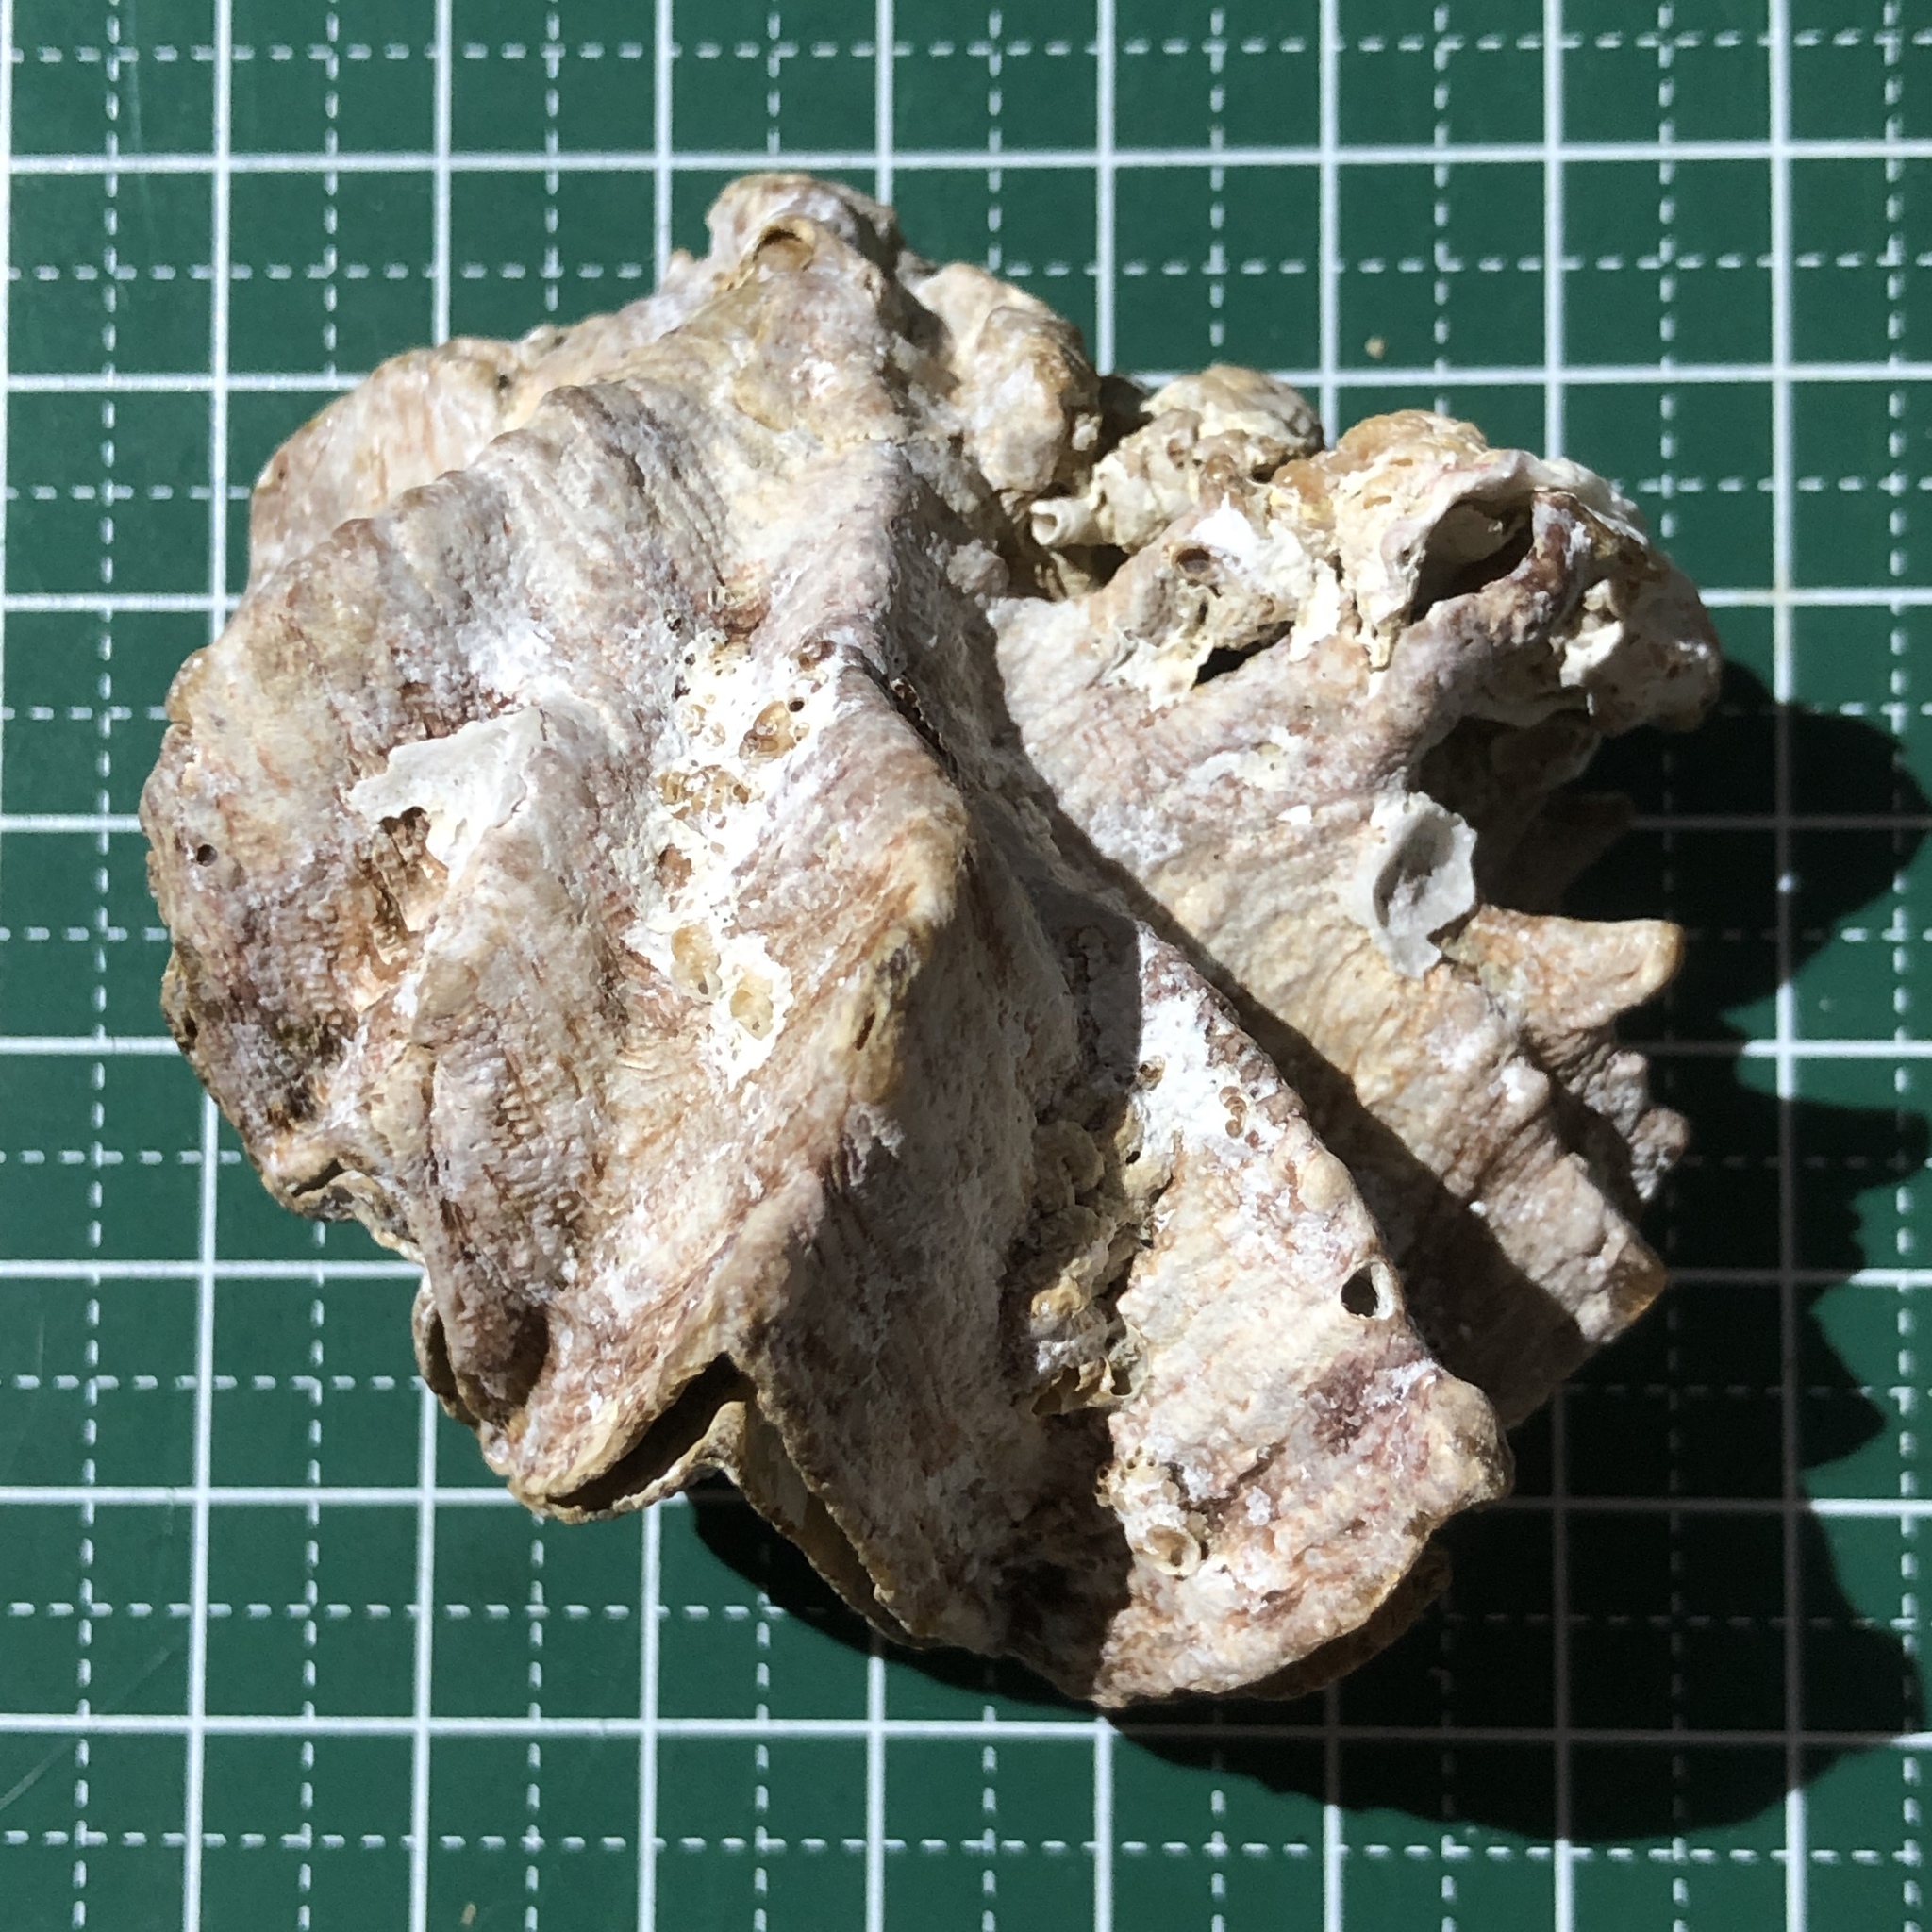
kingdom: Animalia
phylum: Mollusca
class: Bivalvia
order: Ostreida
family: Ostreidae
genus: Lopha
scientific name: Lopha cristagalli
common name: Cock's-comb oyster
